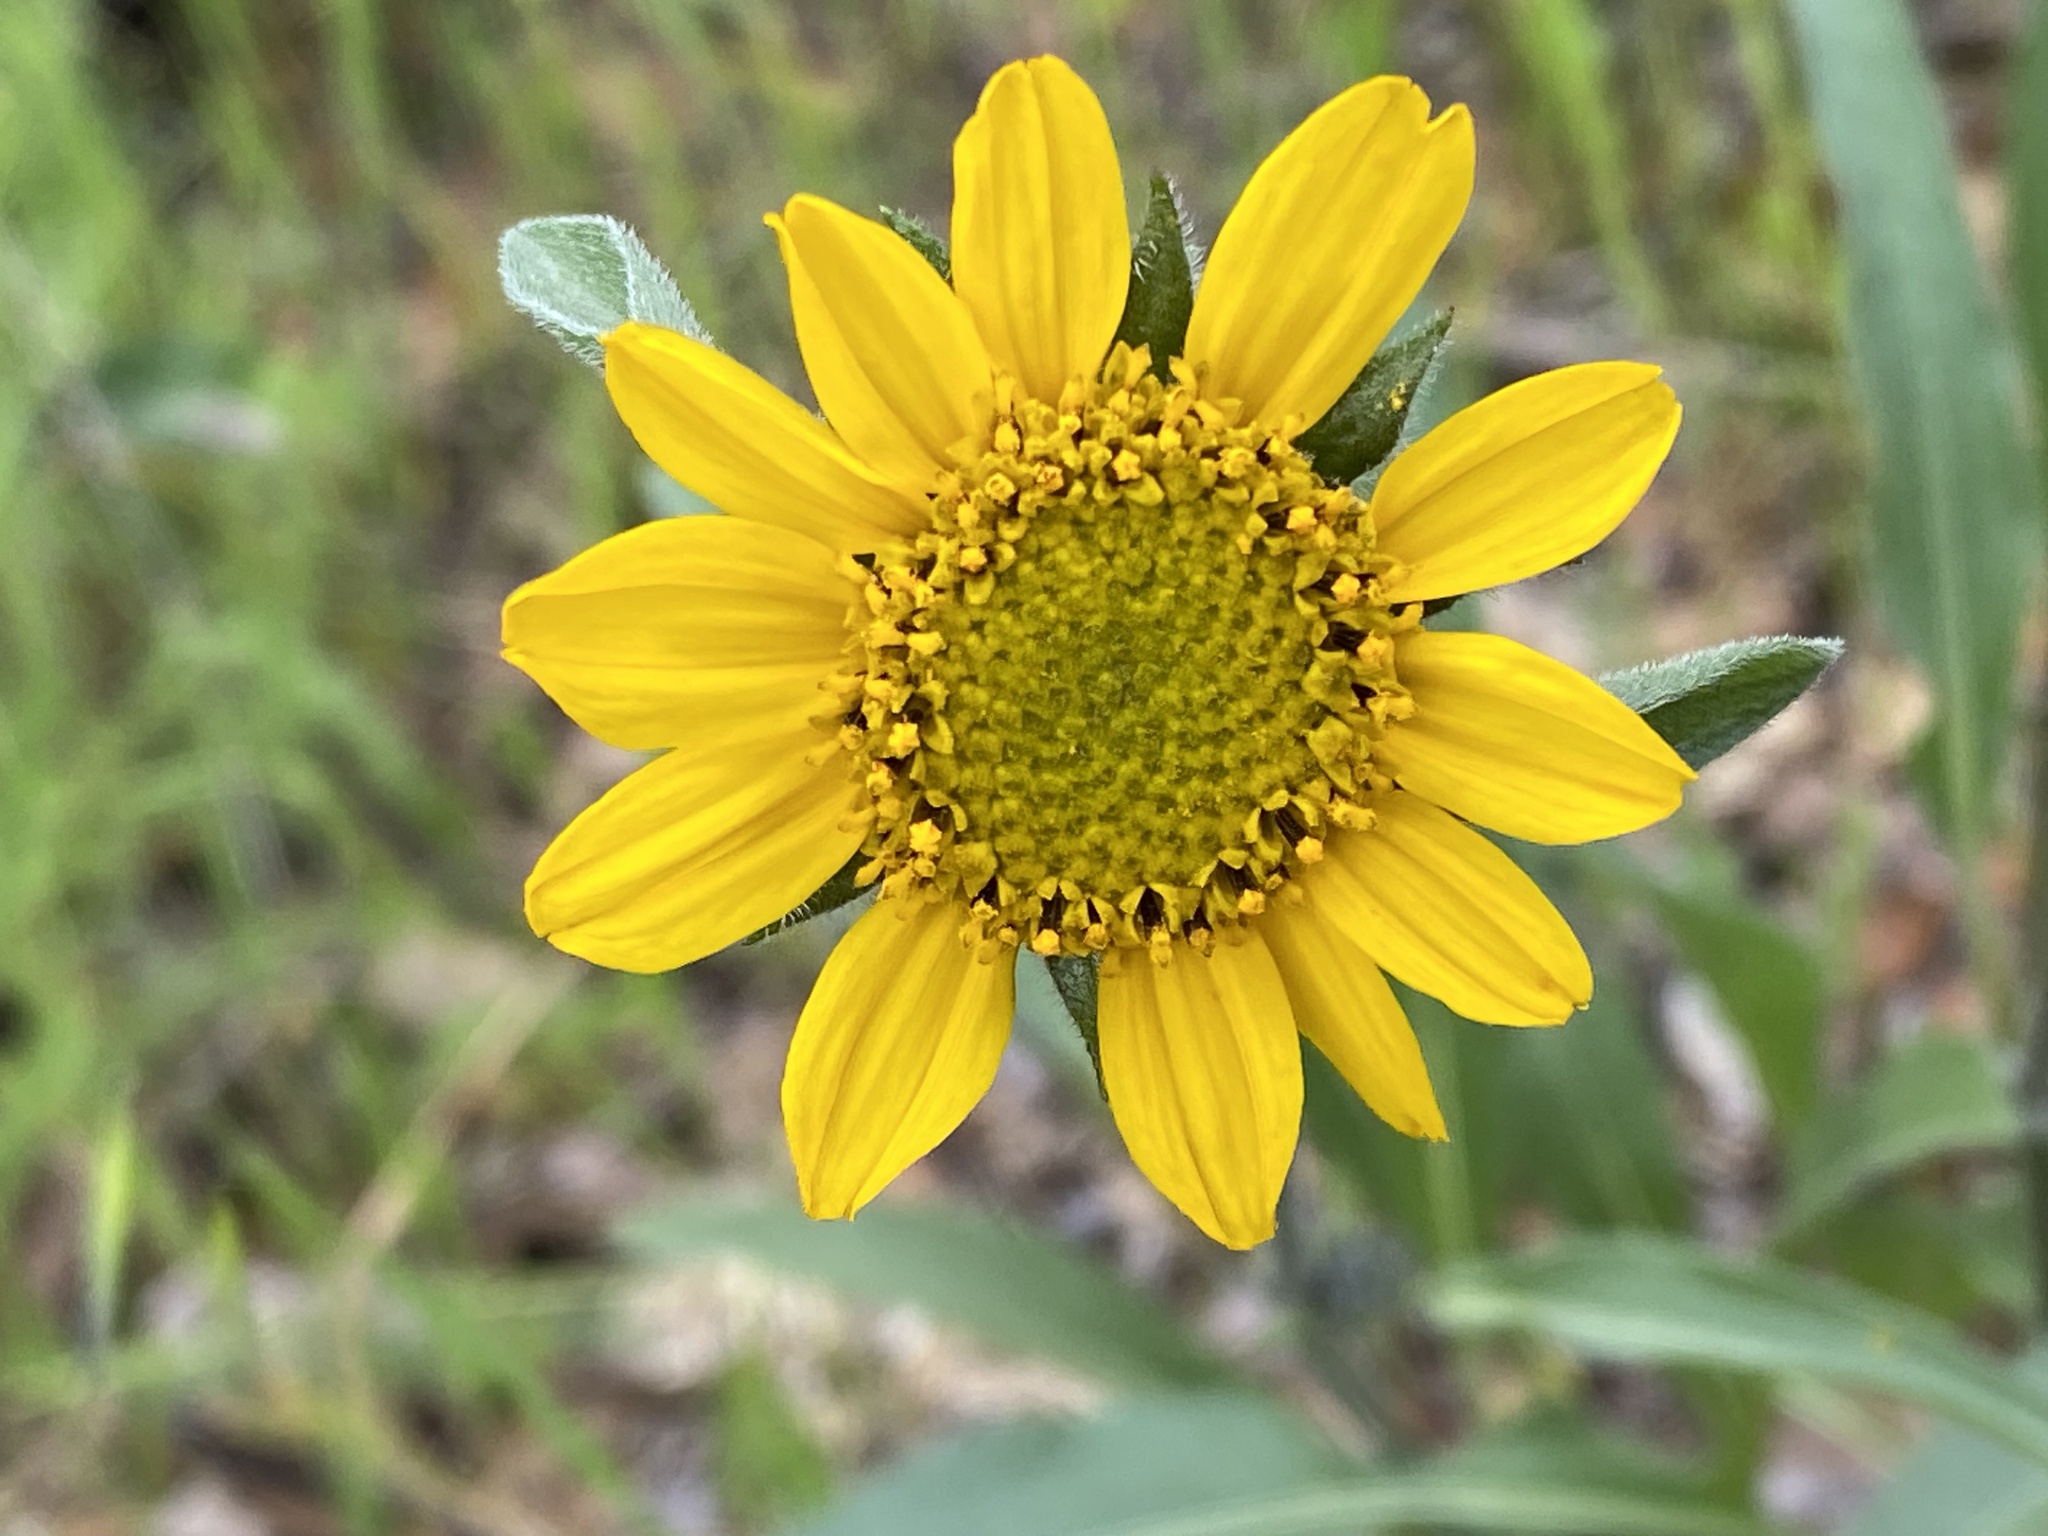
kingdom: Plantae
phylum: Tracheophyta
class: Magnoliopsida
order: Asterales
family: Asteraceae
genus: Helianthella
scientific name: Helianthella californica
